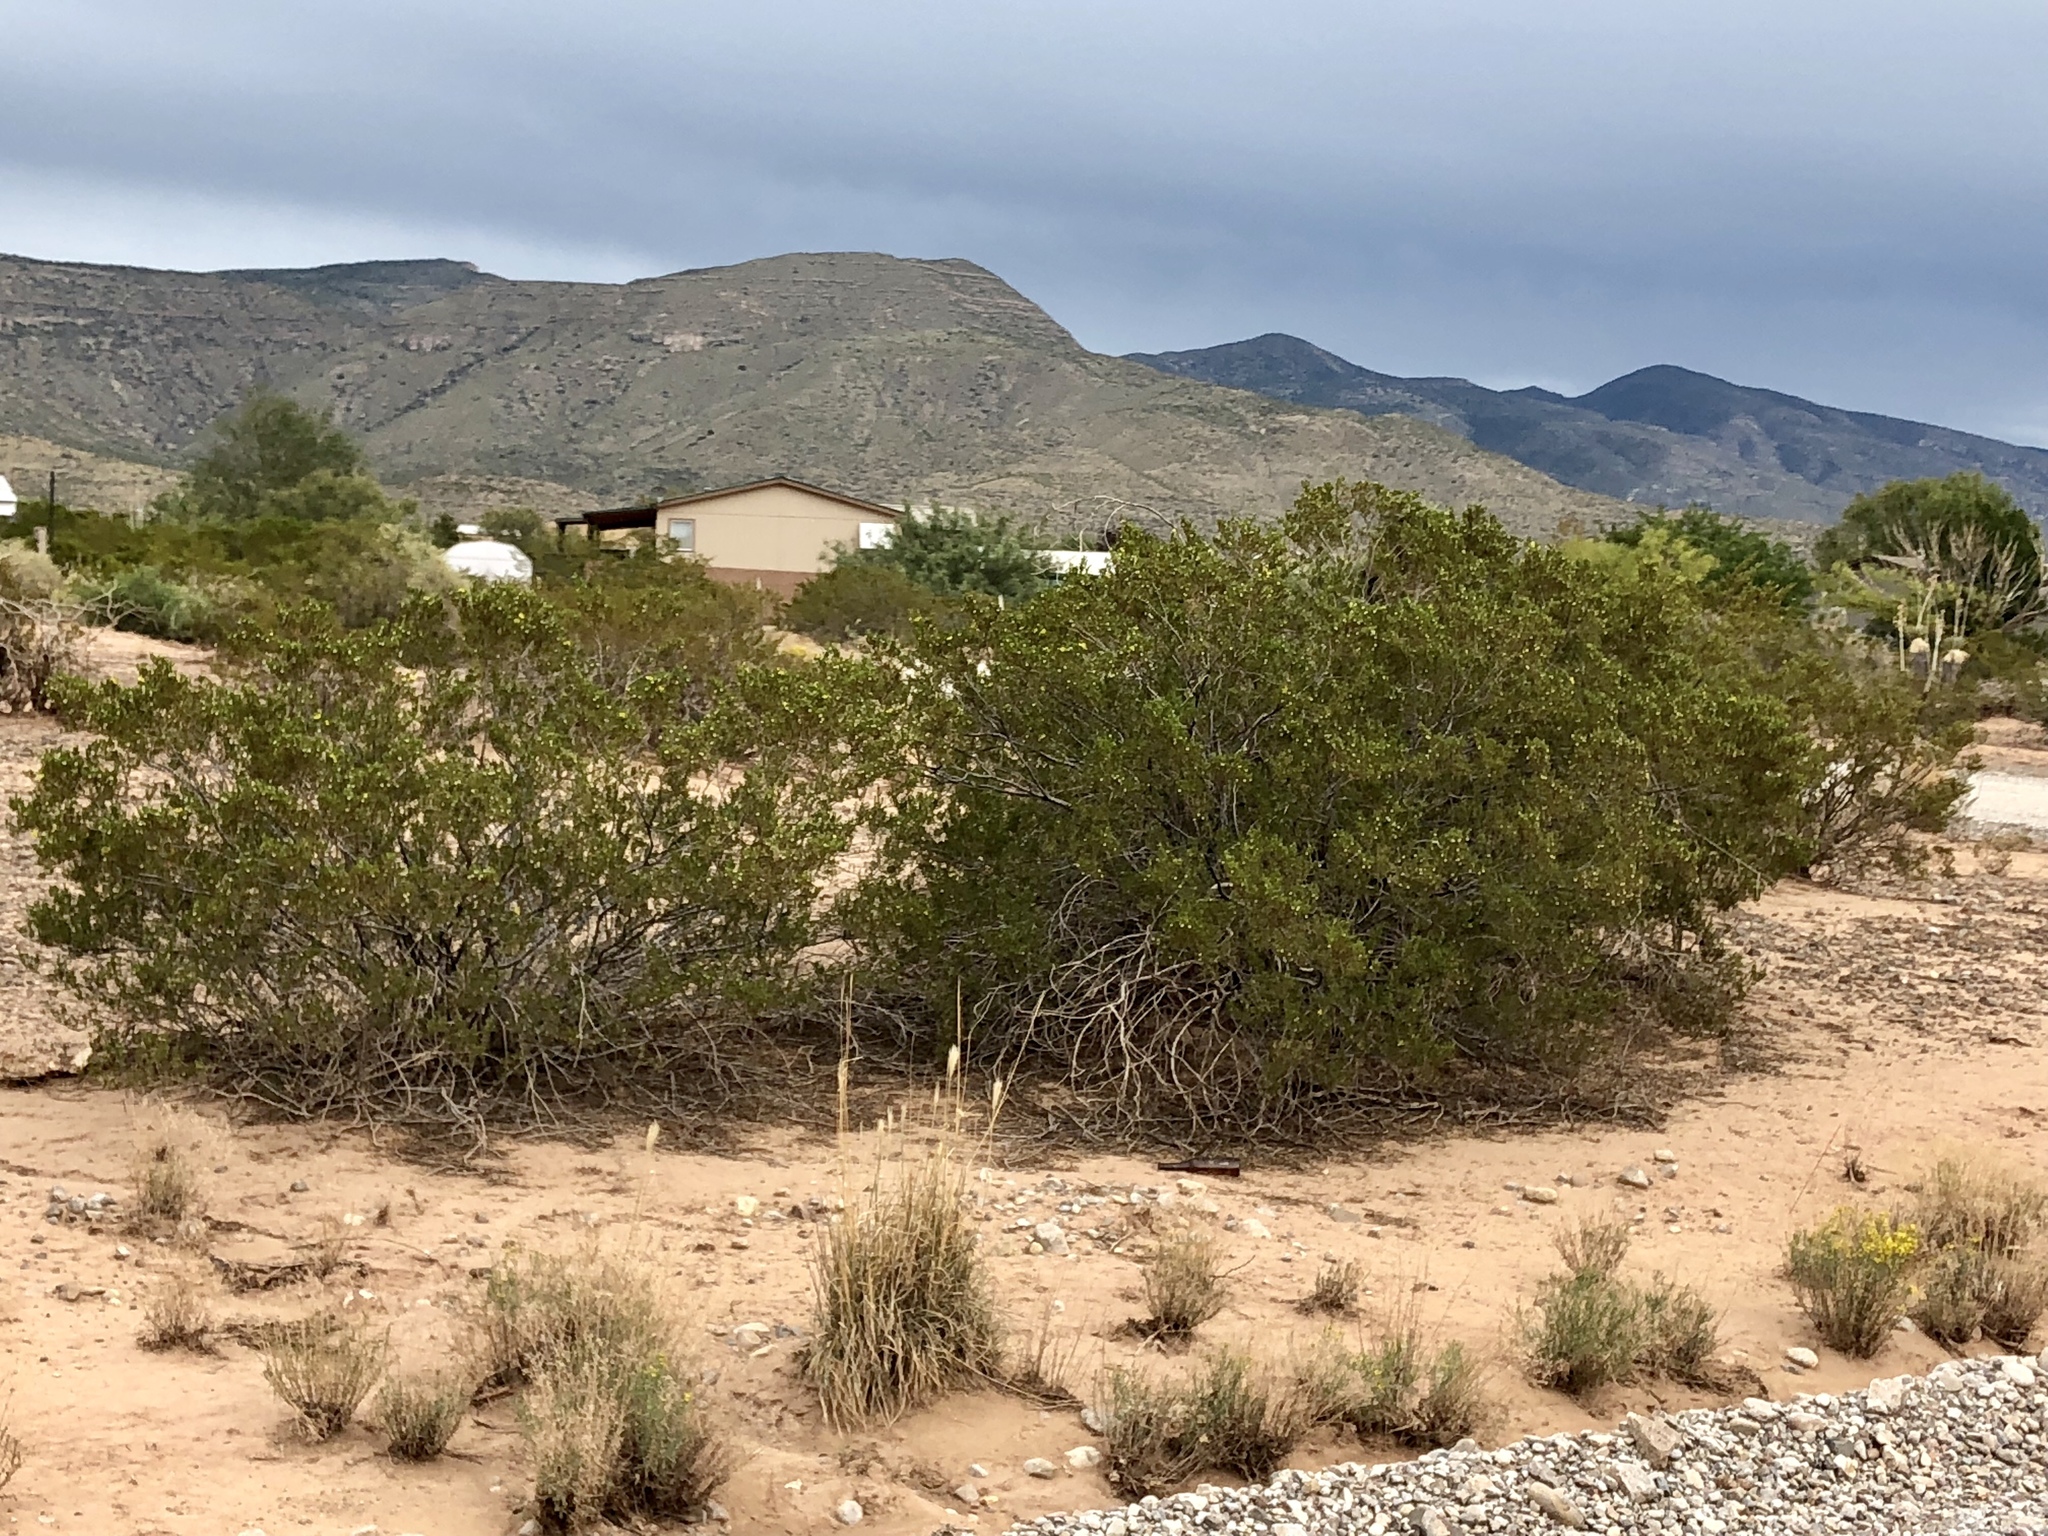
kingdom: Plantae
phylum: Tracheophyta
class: Magnoliopsida
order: Zygophyllales
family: Zygophyllaceae
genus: Larrea
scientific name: Larrea tridentata
